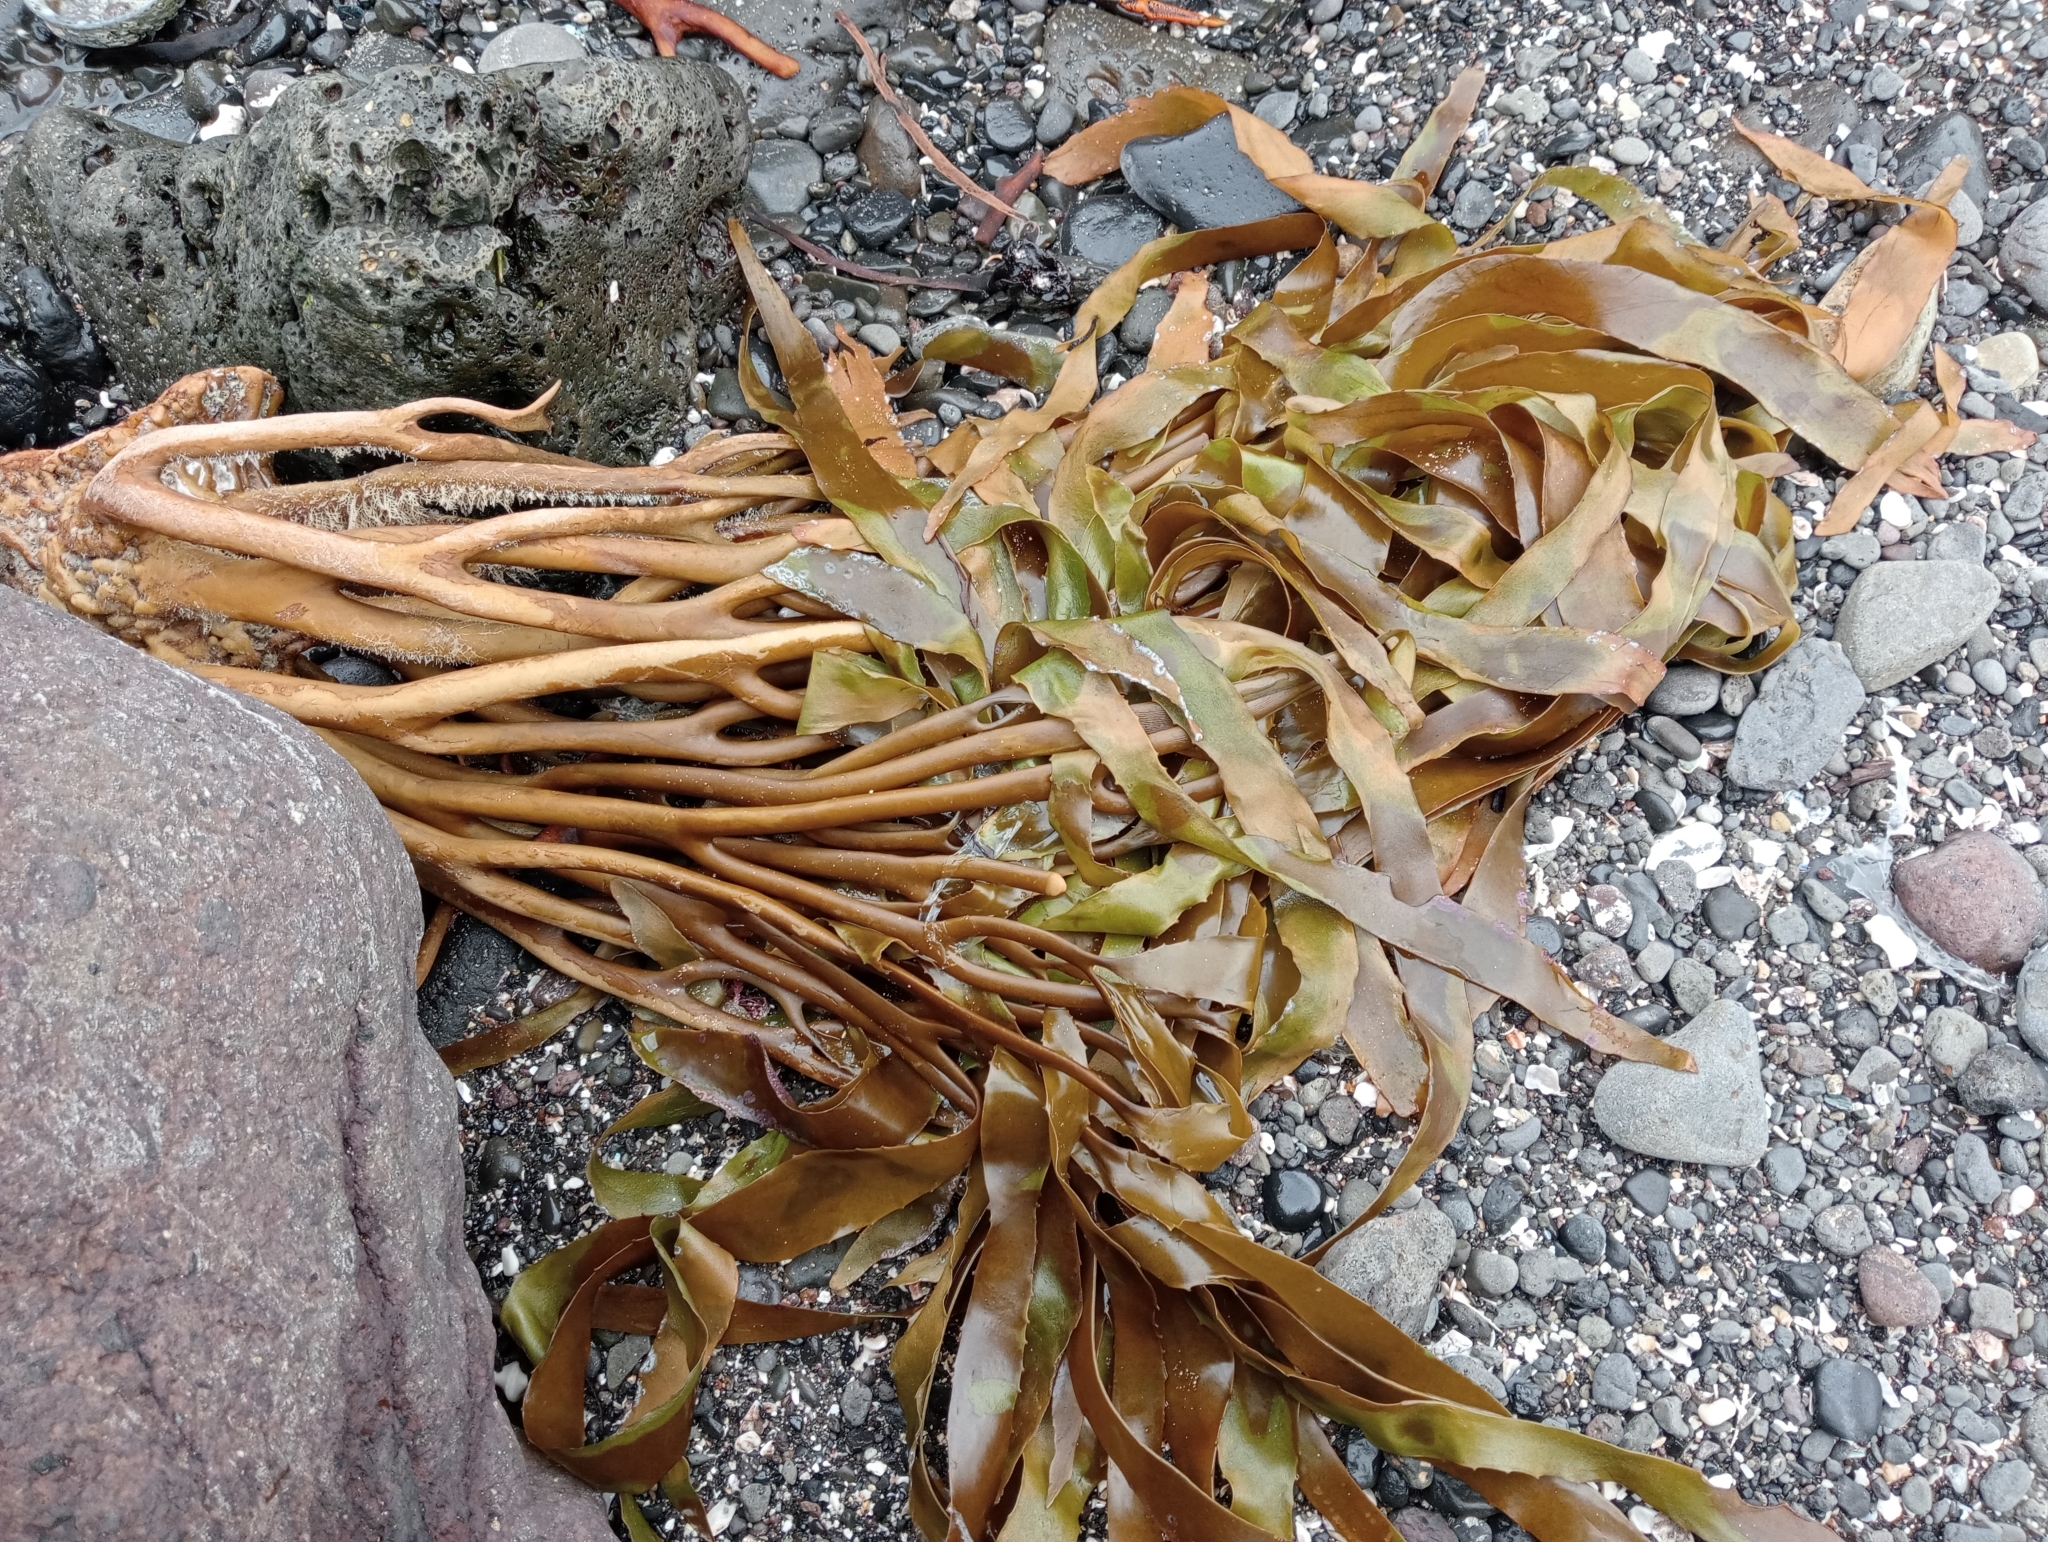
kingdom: Chromista
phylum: Ochrophyta
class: Phaeophyceae
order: Laminariales
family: Lessoniaceae
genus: Lessonia
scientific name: Lessonia tholiformis
